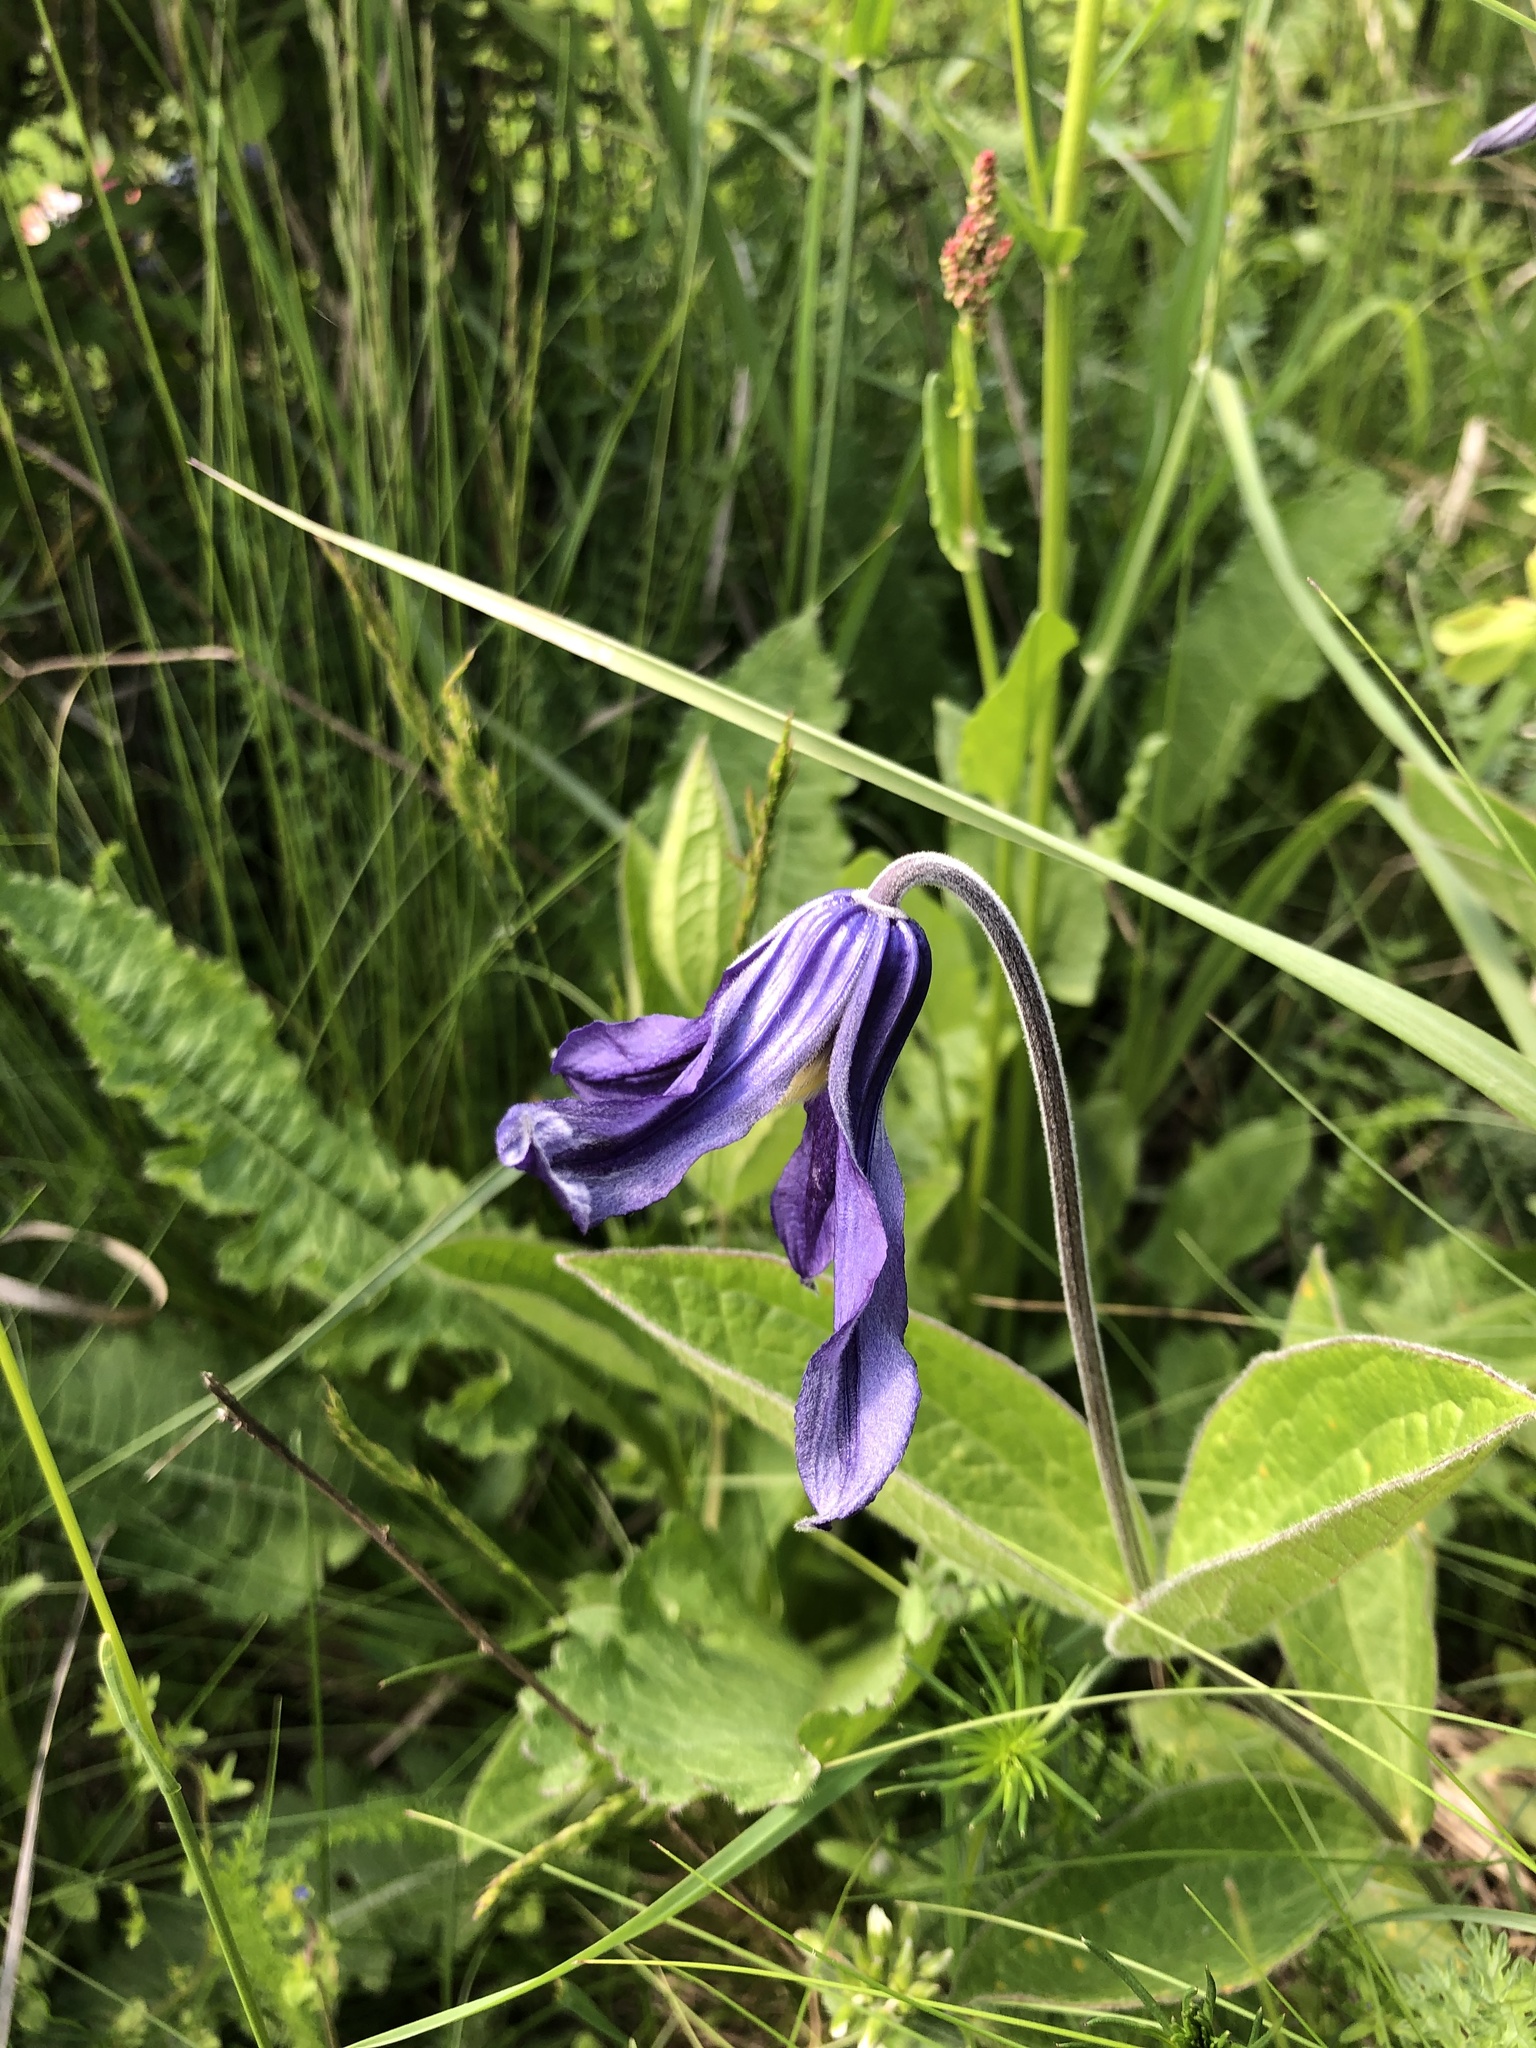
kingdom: Plantae
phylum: Tracheophyta
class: Magnoliopsida
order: Ranunculales
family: Ranunculaceae
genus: Clematis
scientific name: Clematis integrifolia
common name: Solitary clematis
